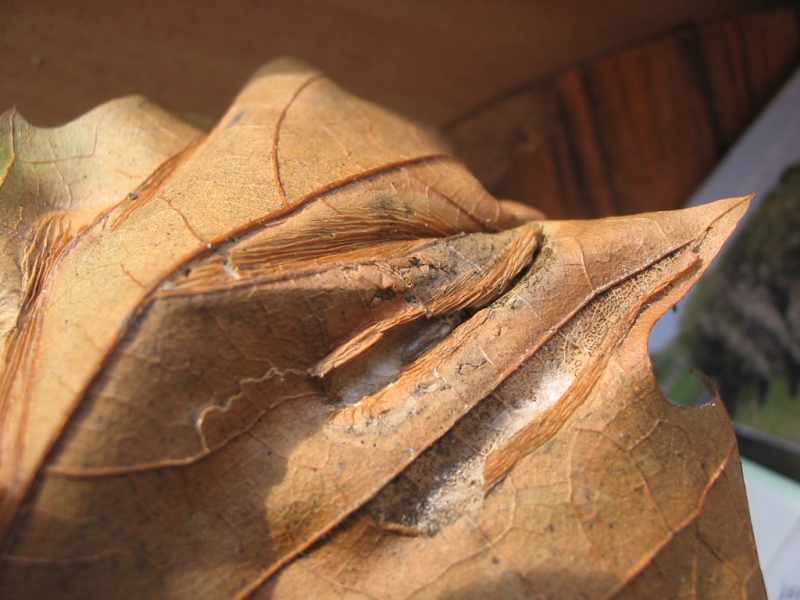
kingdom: Animalia
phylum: Arthropoda
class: Insecta
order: Lepidoptera
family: Gracillariidae
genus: Phyllonorycter
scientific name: Phyllonorycter platani
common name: London midget
